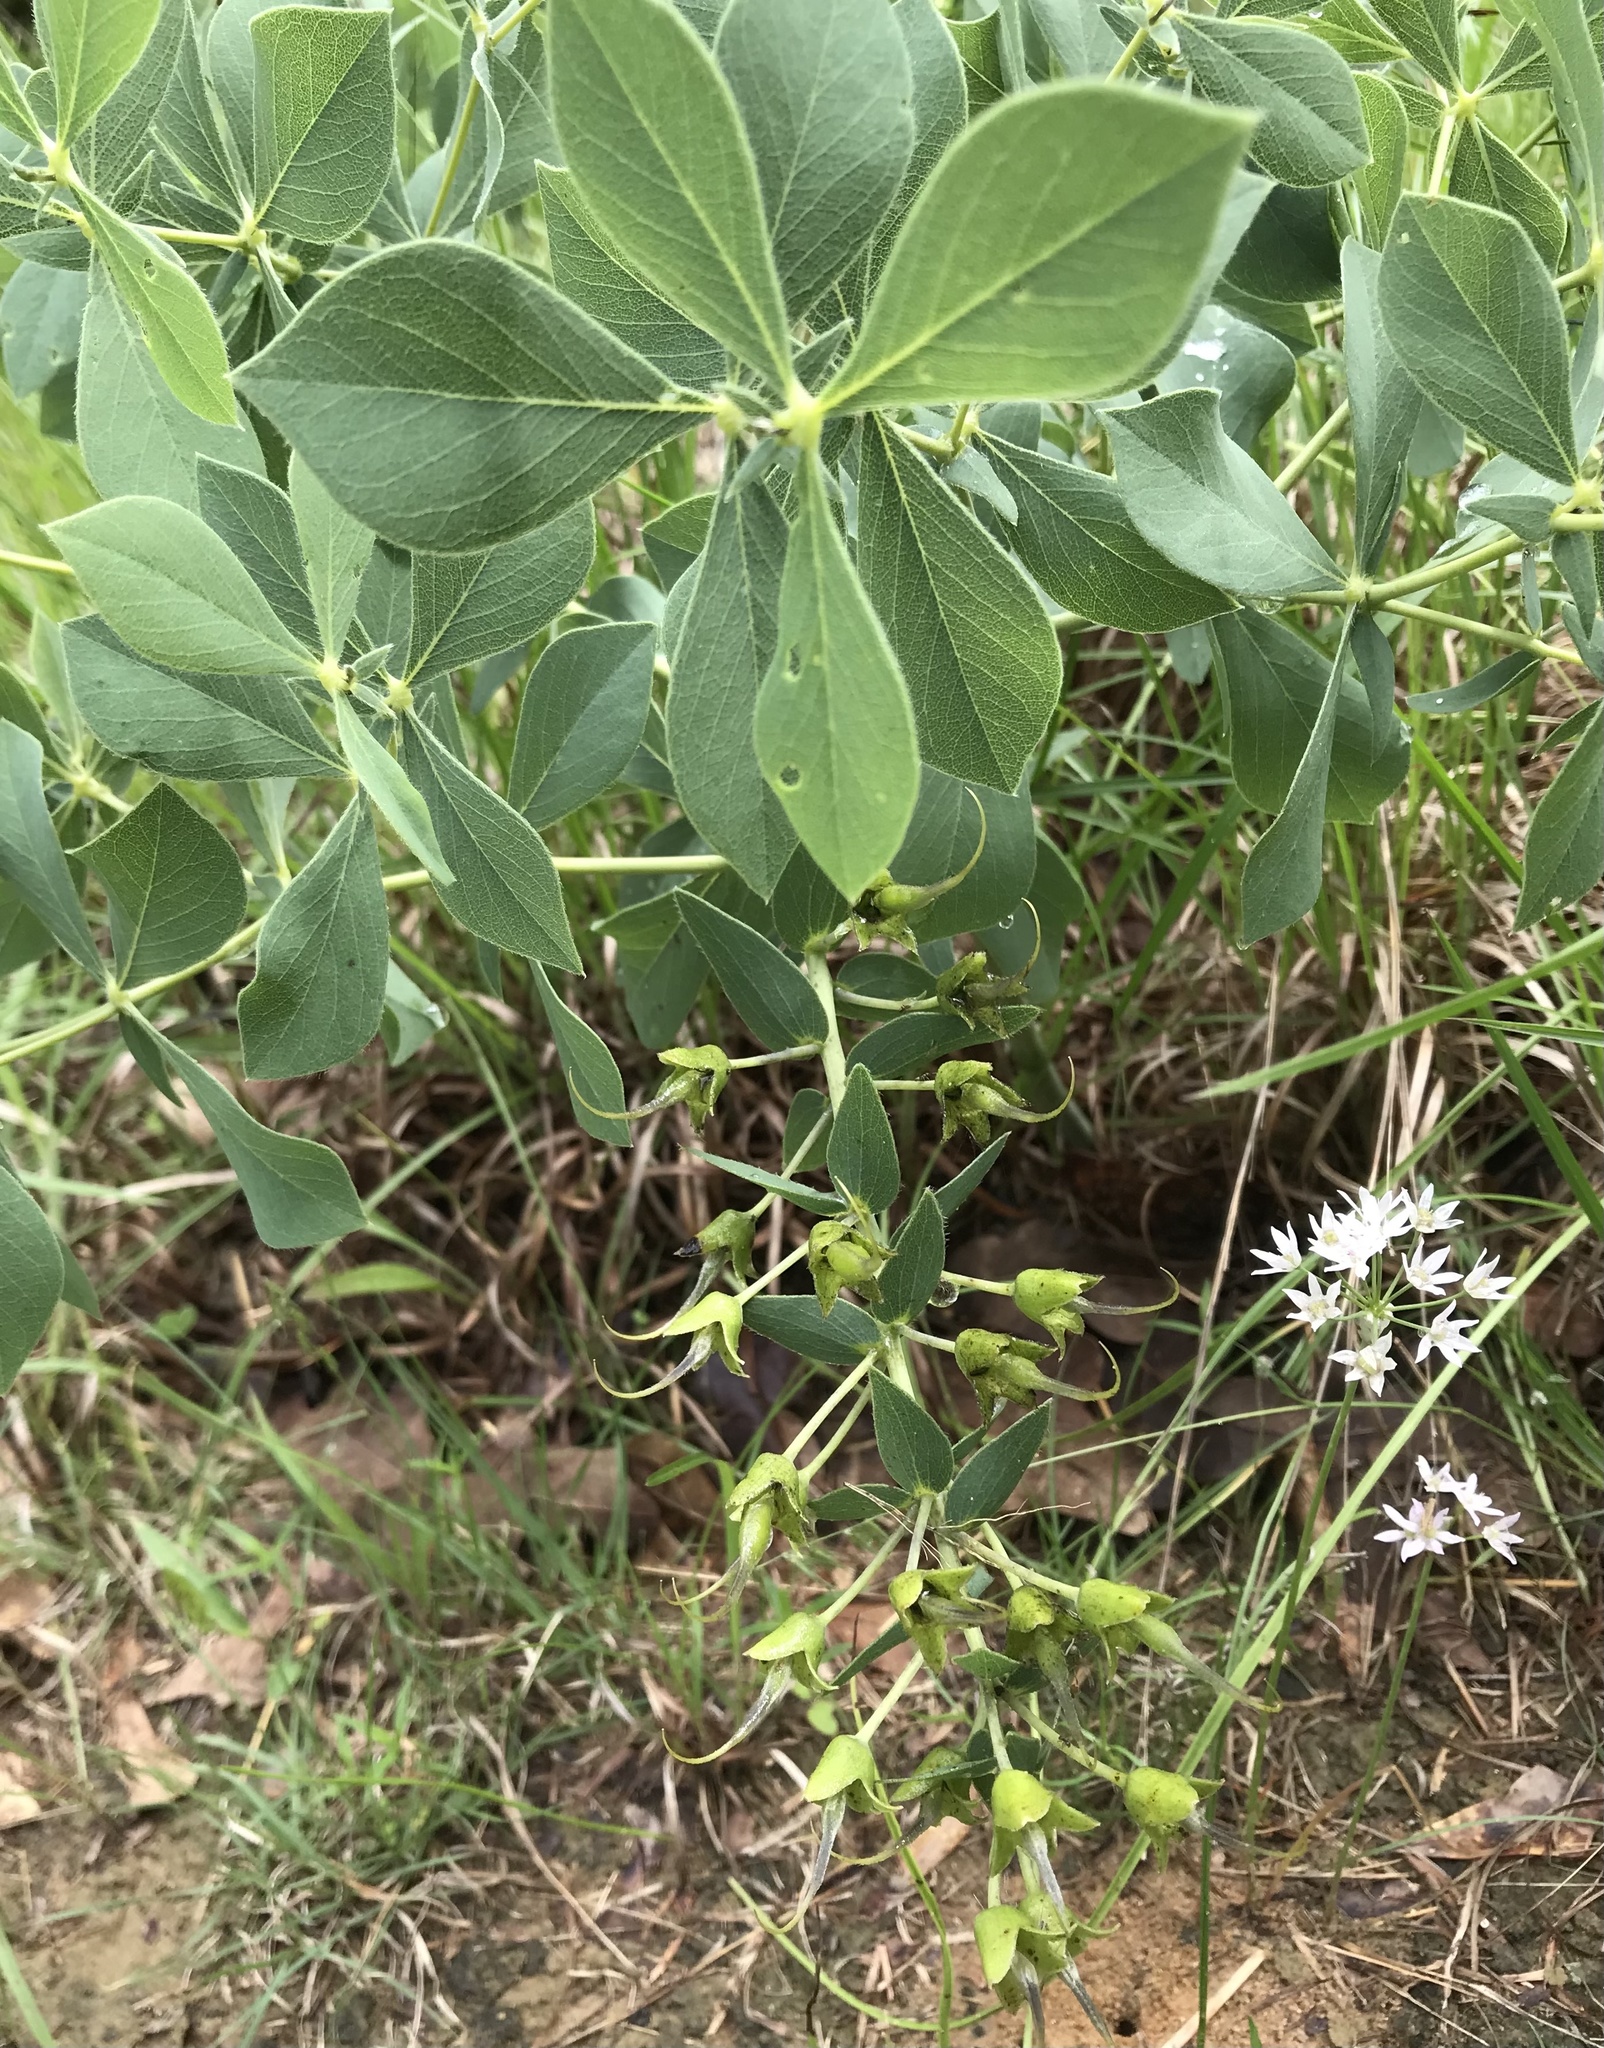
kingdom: Plantae
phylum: Tracheophyta
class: Magnoliopsida
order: Fabales
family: Fabaceae
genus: Baptisia
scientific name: Baptisia bracteata
